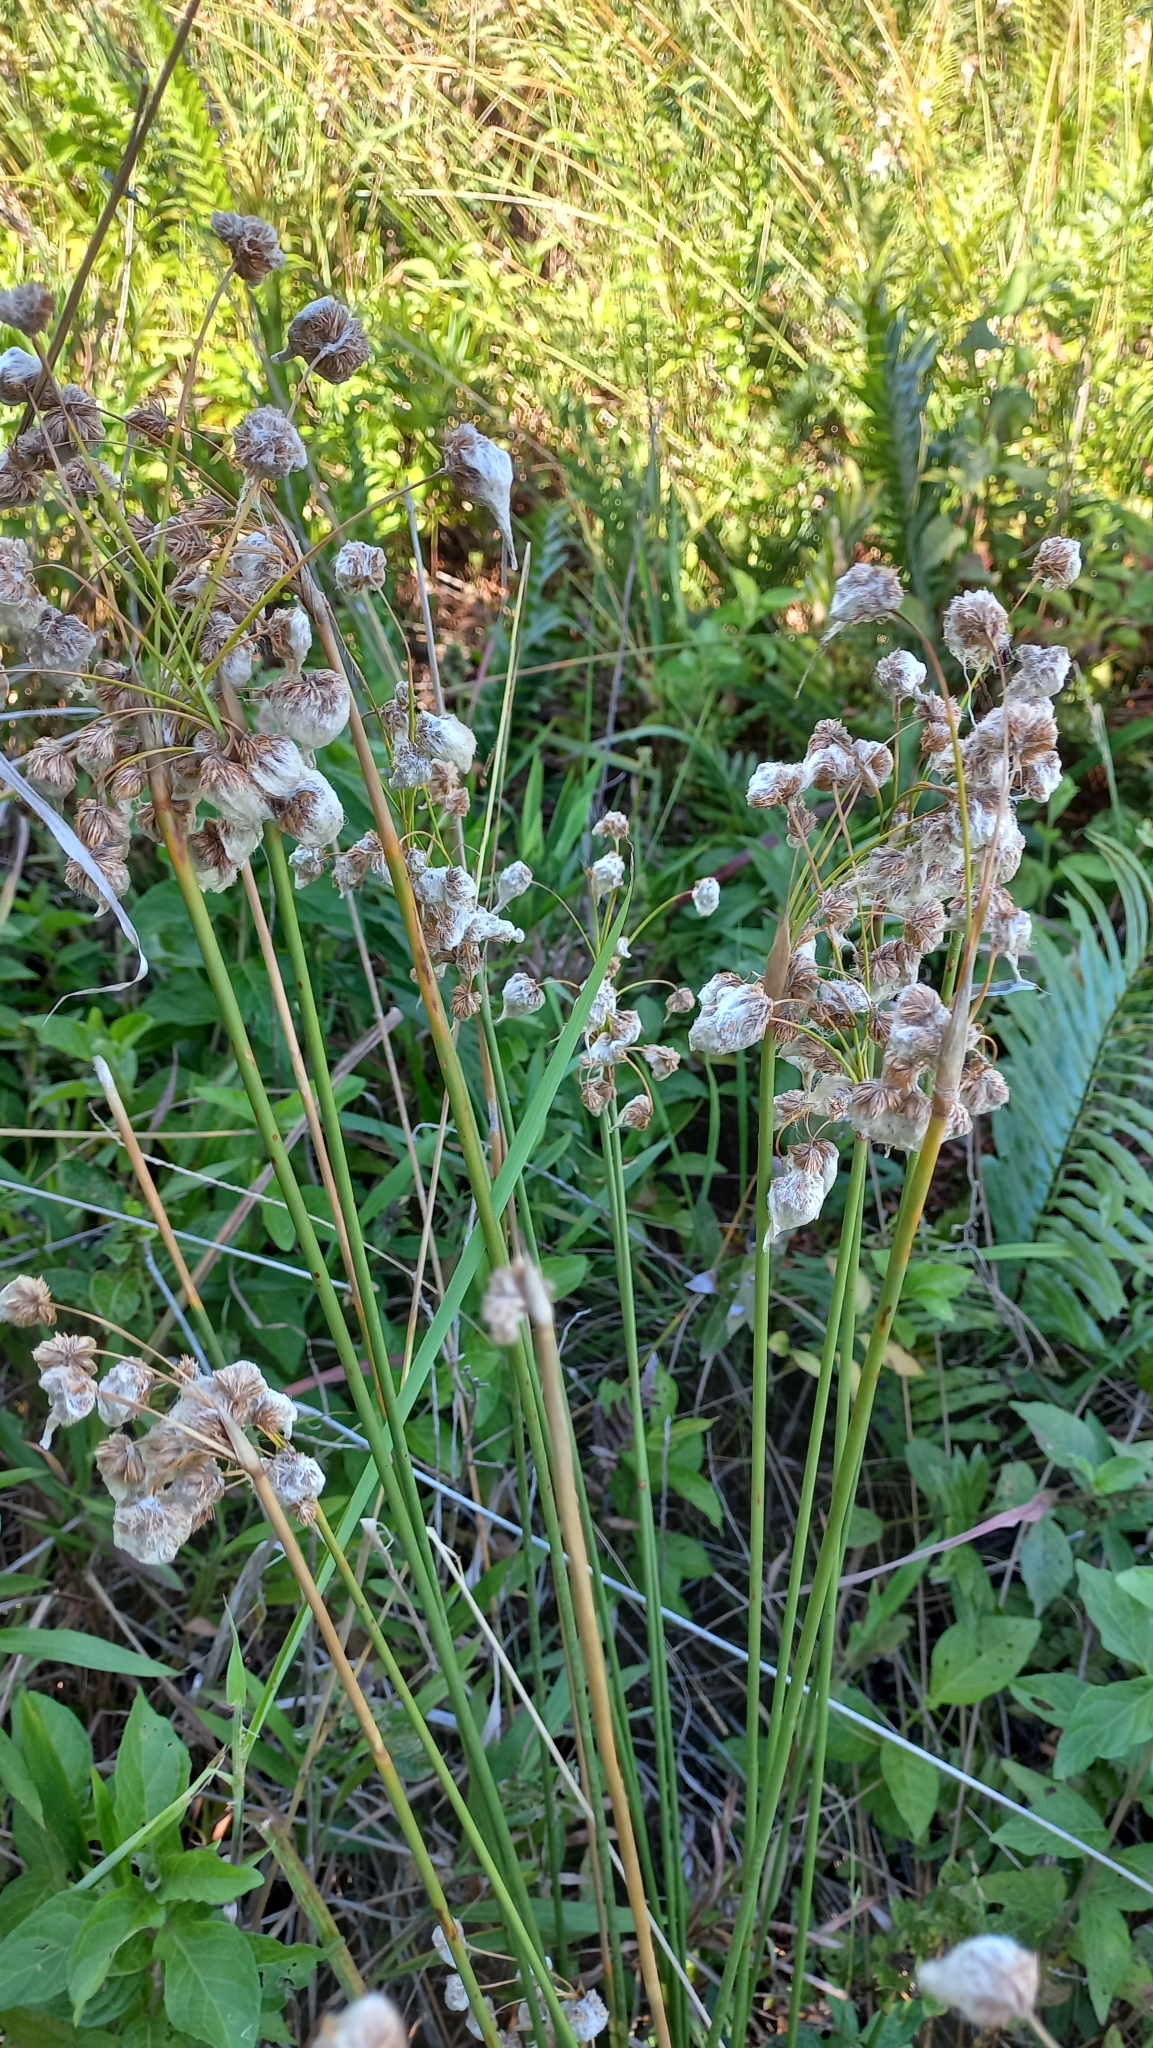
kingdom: Plantae
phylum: Tracheophyta
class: Liliopsida
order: Poales
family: Cyperaceae
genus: Cyperus
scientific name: Cyperus trigynus
